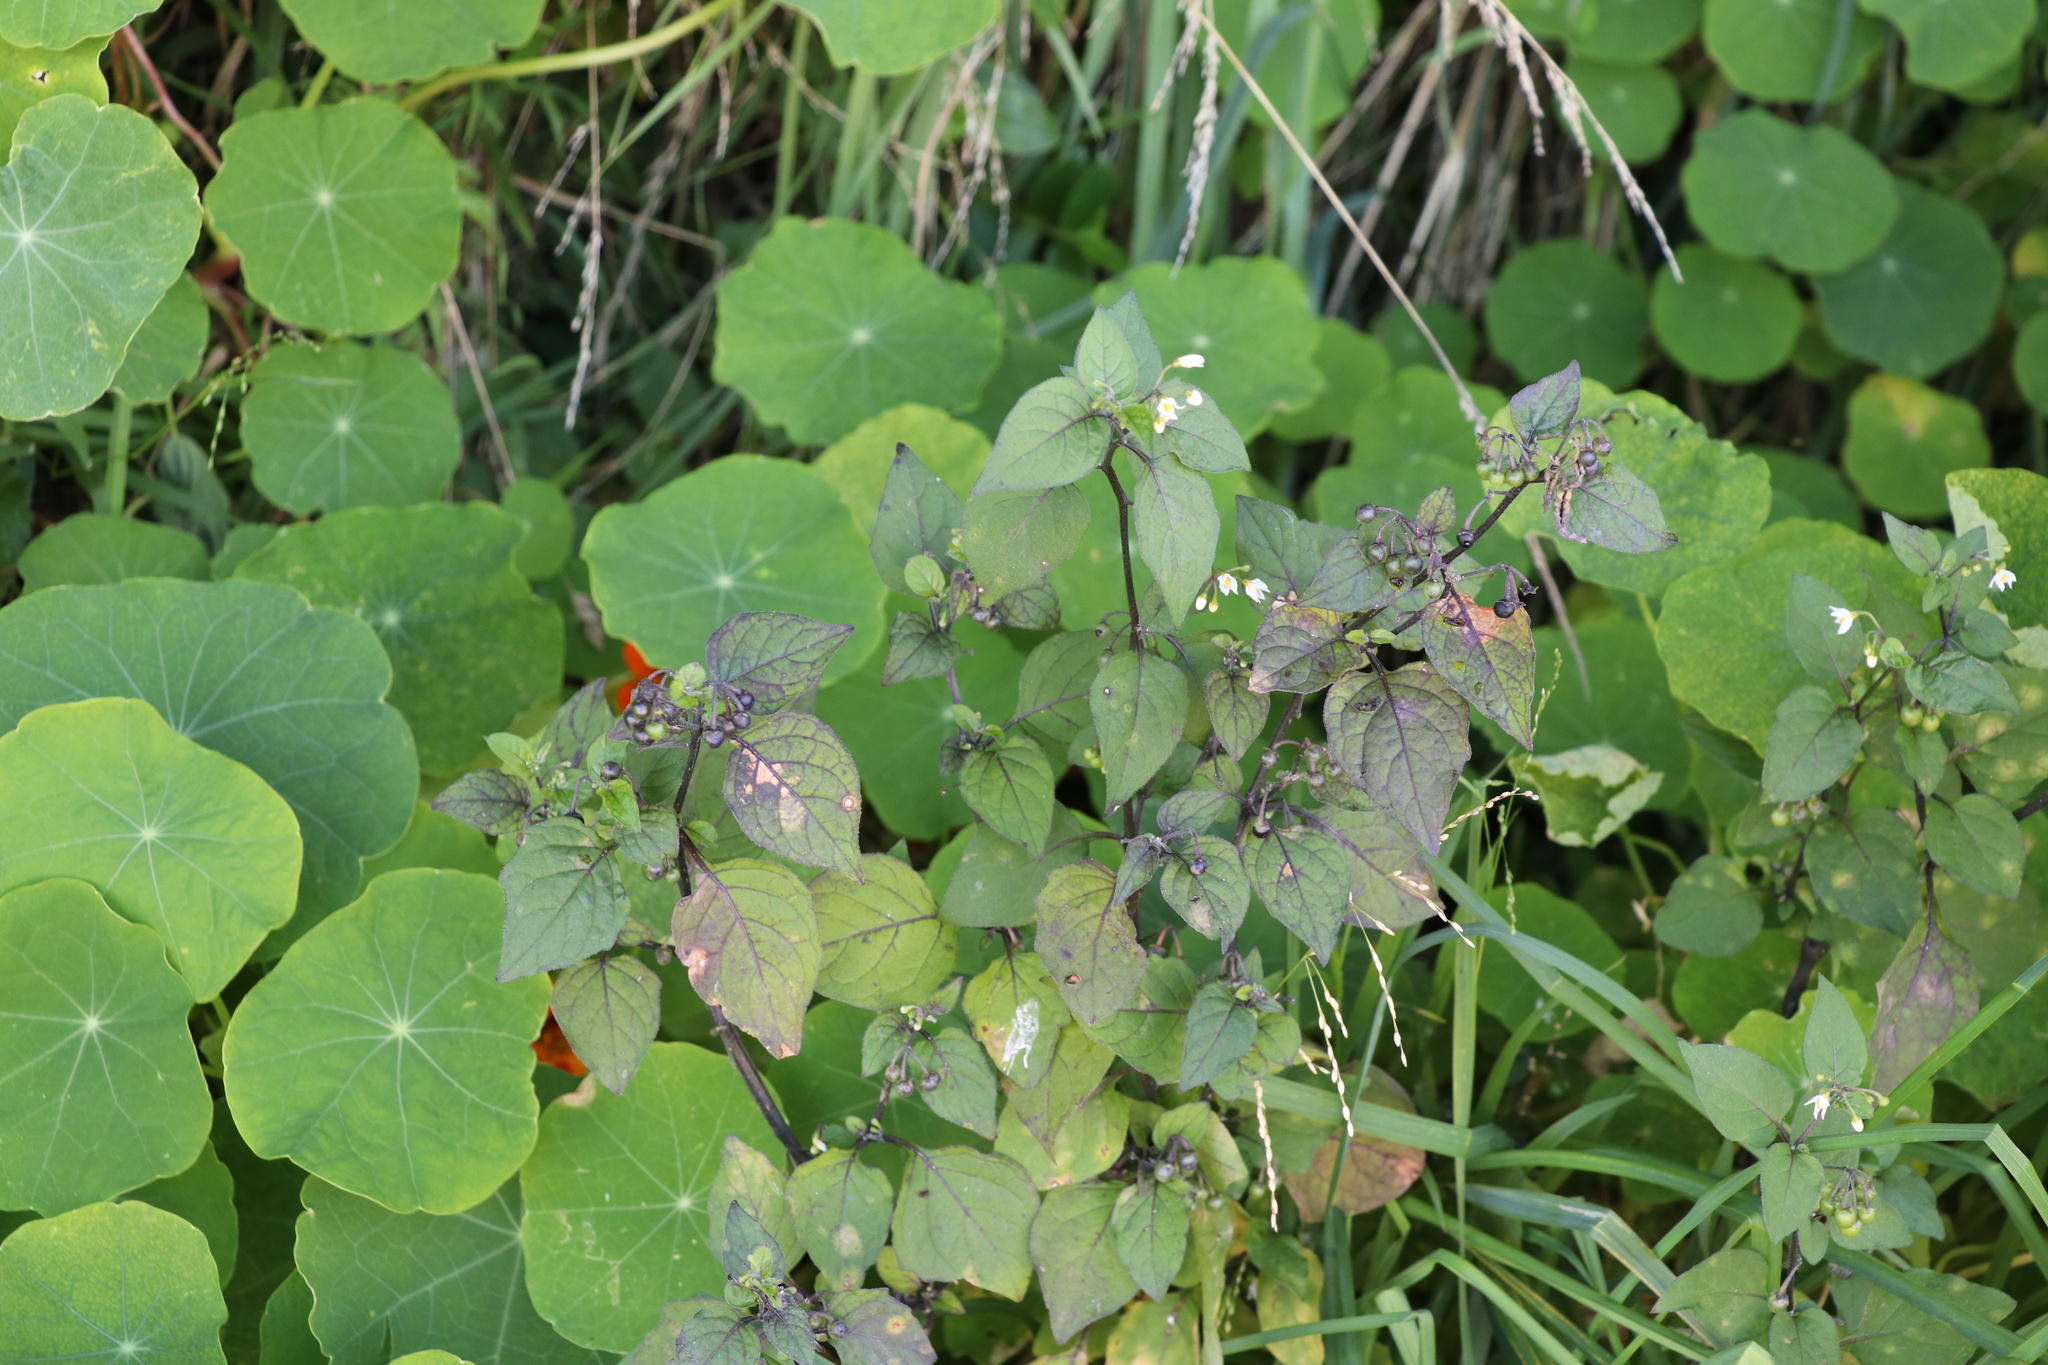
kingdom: Plantae
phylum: Tracheophyta
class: Magnoliopsida
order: Solanales
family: Solanaceae
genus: Solanum
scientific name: Solanum nigrum
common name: Black nightshade
